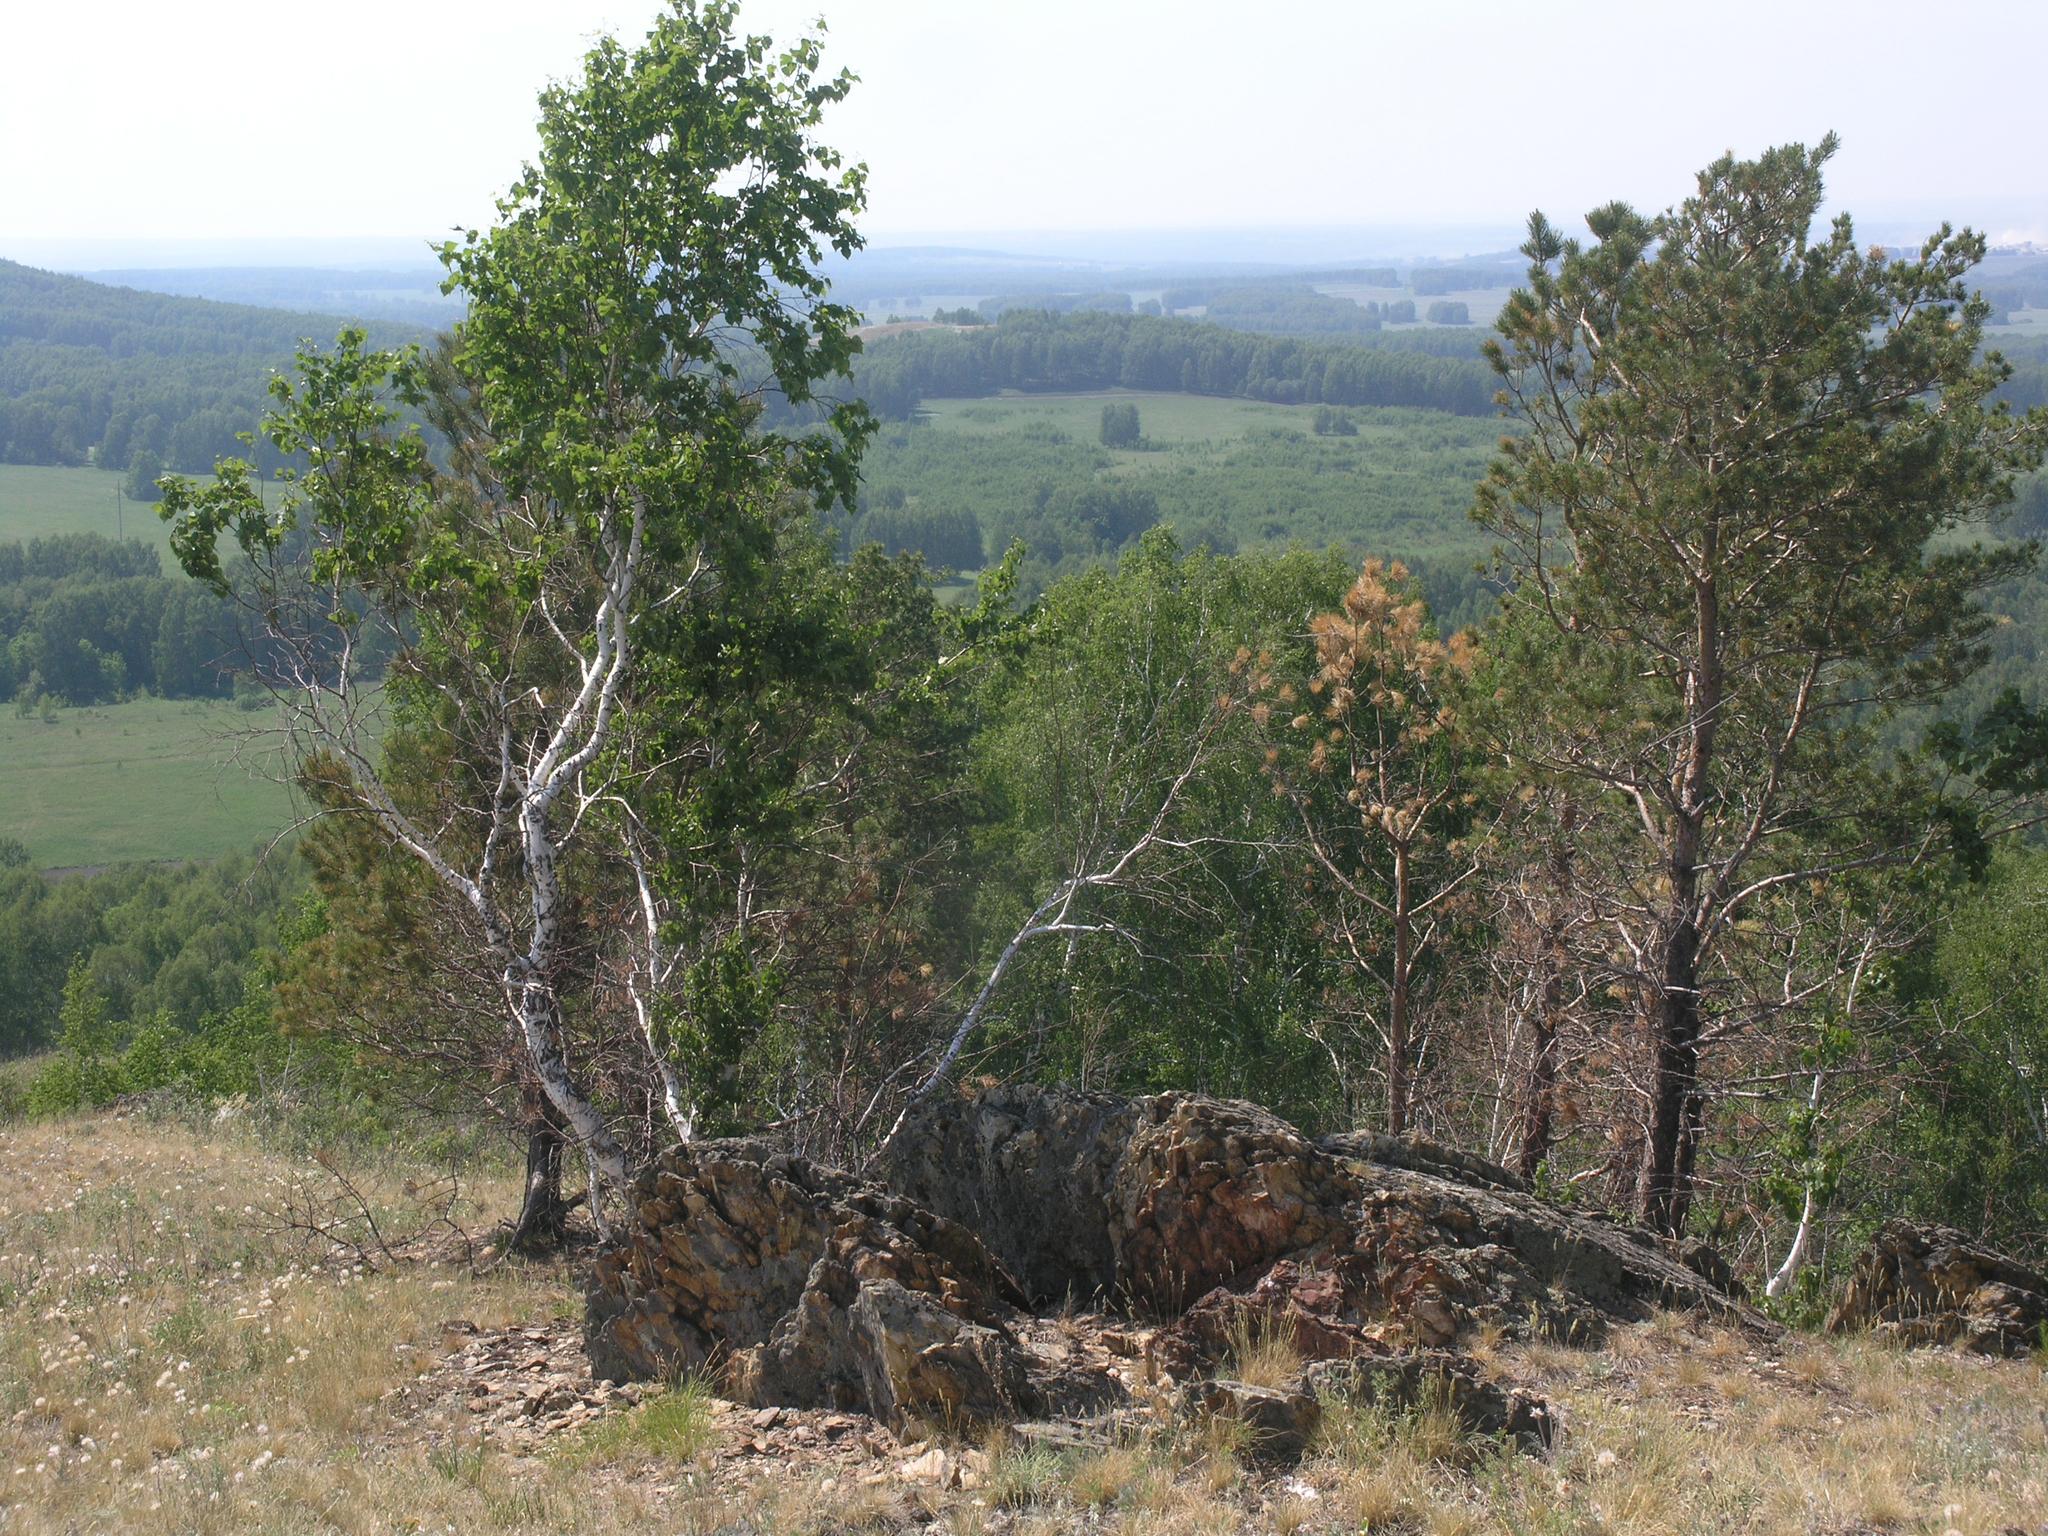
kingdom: Plantae
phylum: Tracheophyta
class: Pinopsida
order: Pinales
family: Pinaceae
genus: Pinus
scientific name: Pinus sylvestris
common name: Scots pine
